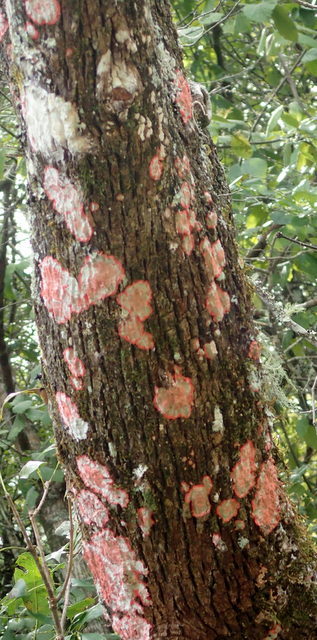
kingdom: Fungi
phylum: Ascomycota
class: Arthoniomycetes
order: Arthoniales
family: Arthoniaceae
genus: Herpothallon
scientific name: Herpothallon rubrocinctum
